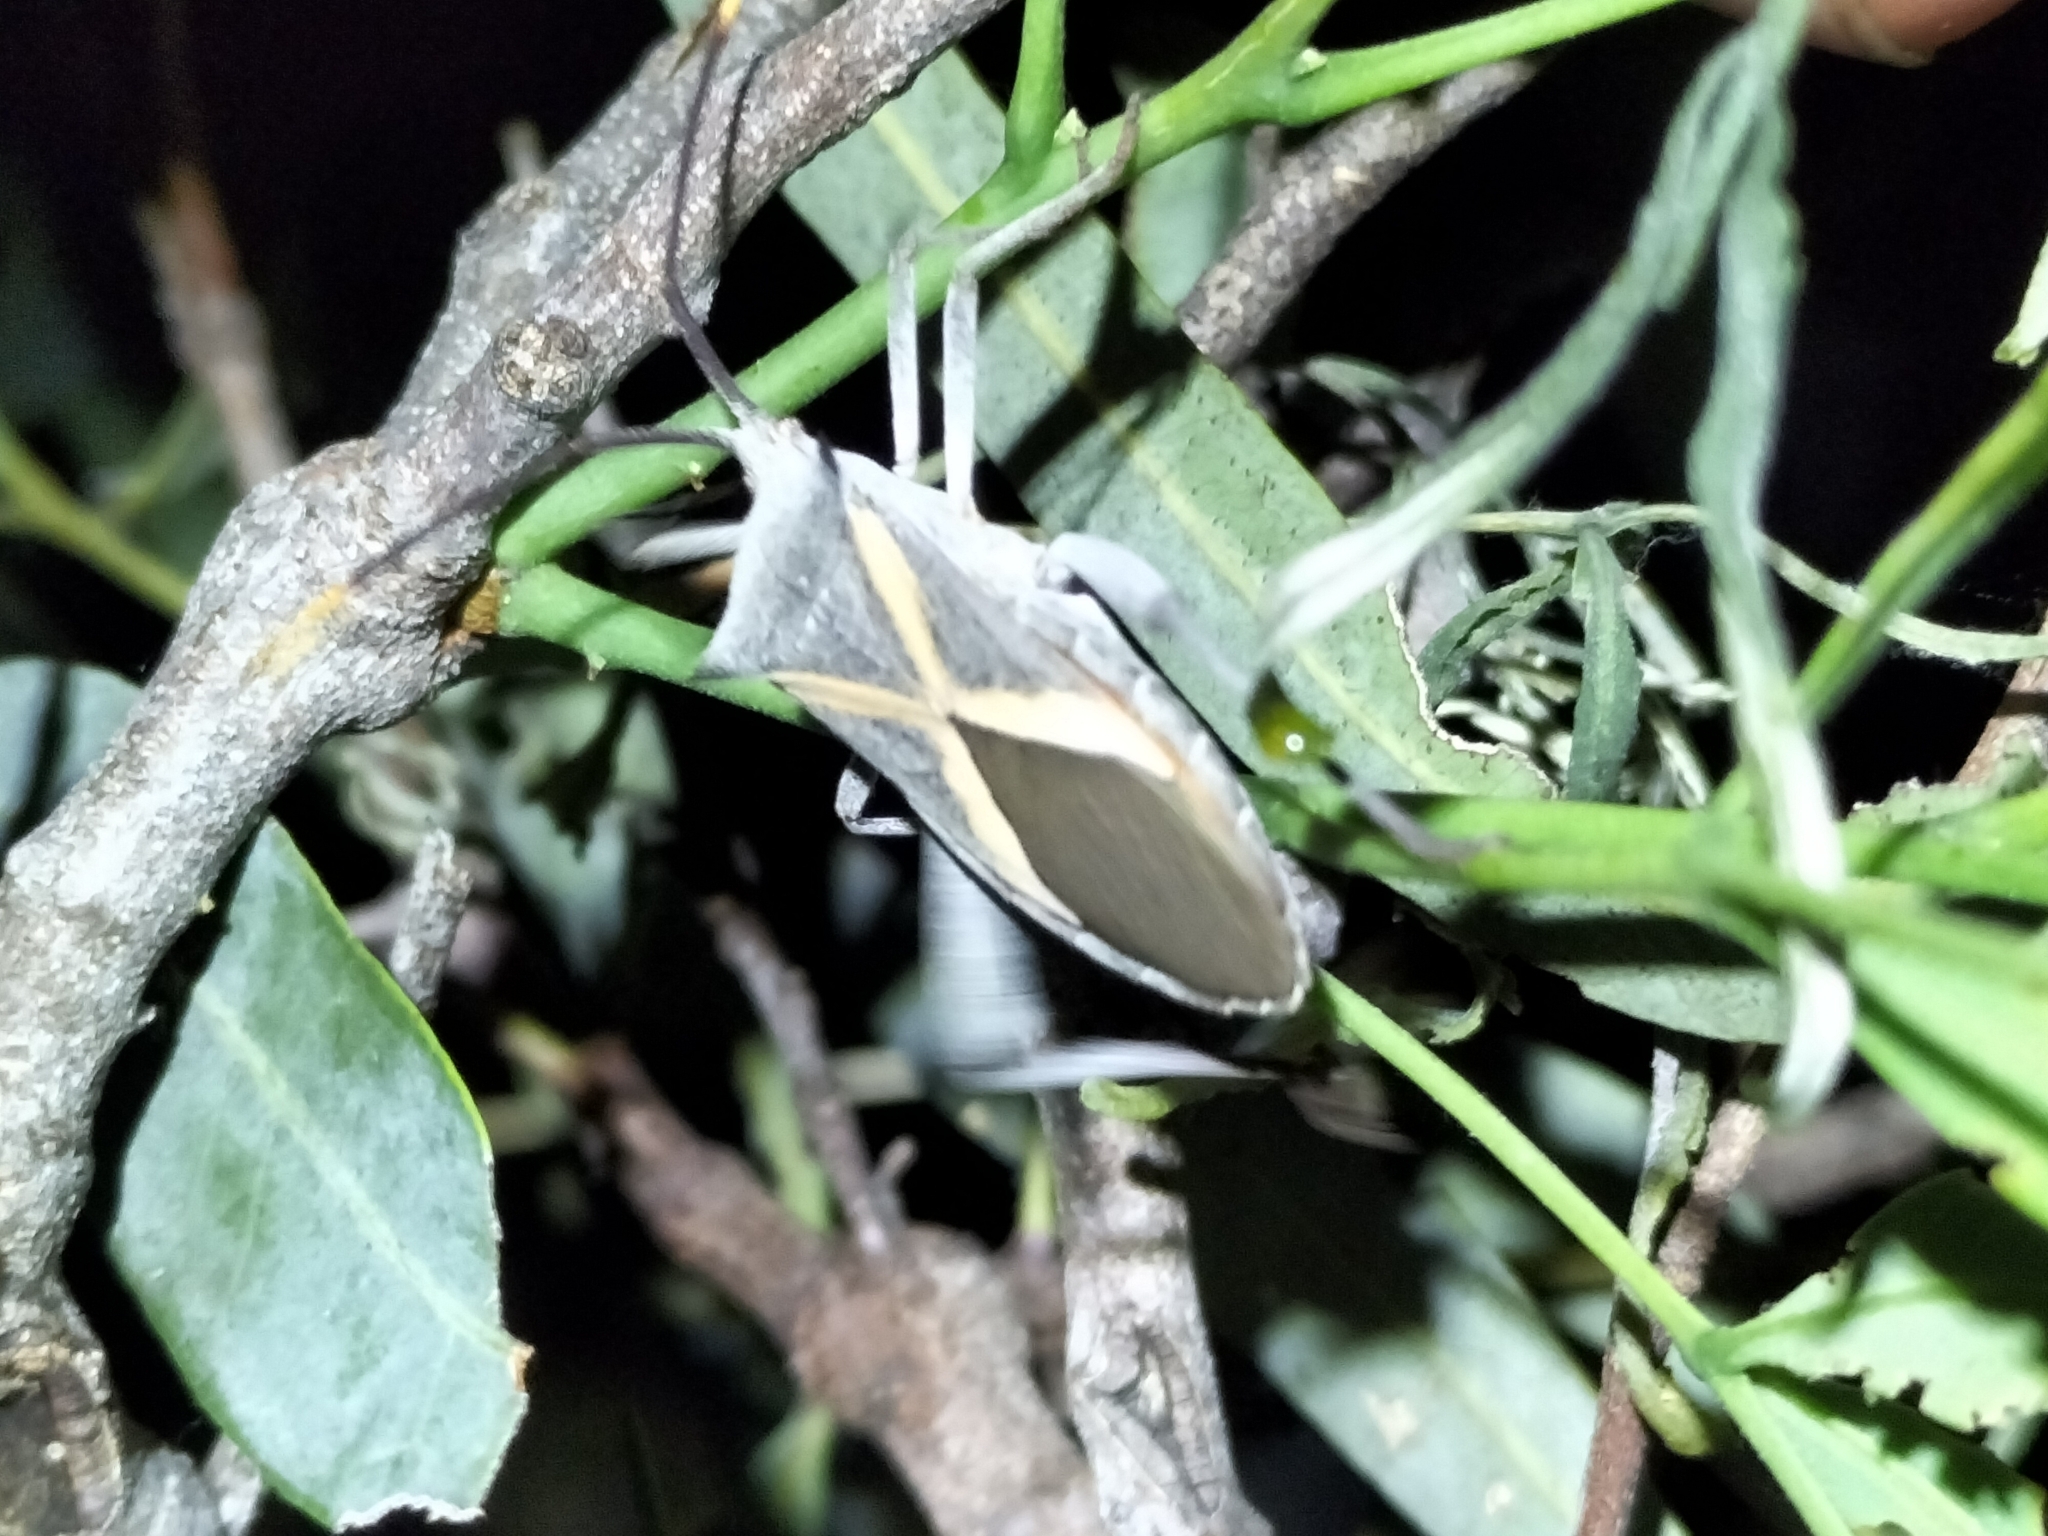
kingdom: Animalia
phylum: Arthropoda
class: Insecta
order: Hemiptera
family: Coreidae
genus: Mictis
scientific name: Mictis profana
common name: Crusader bug
